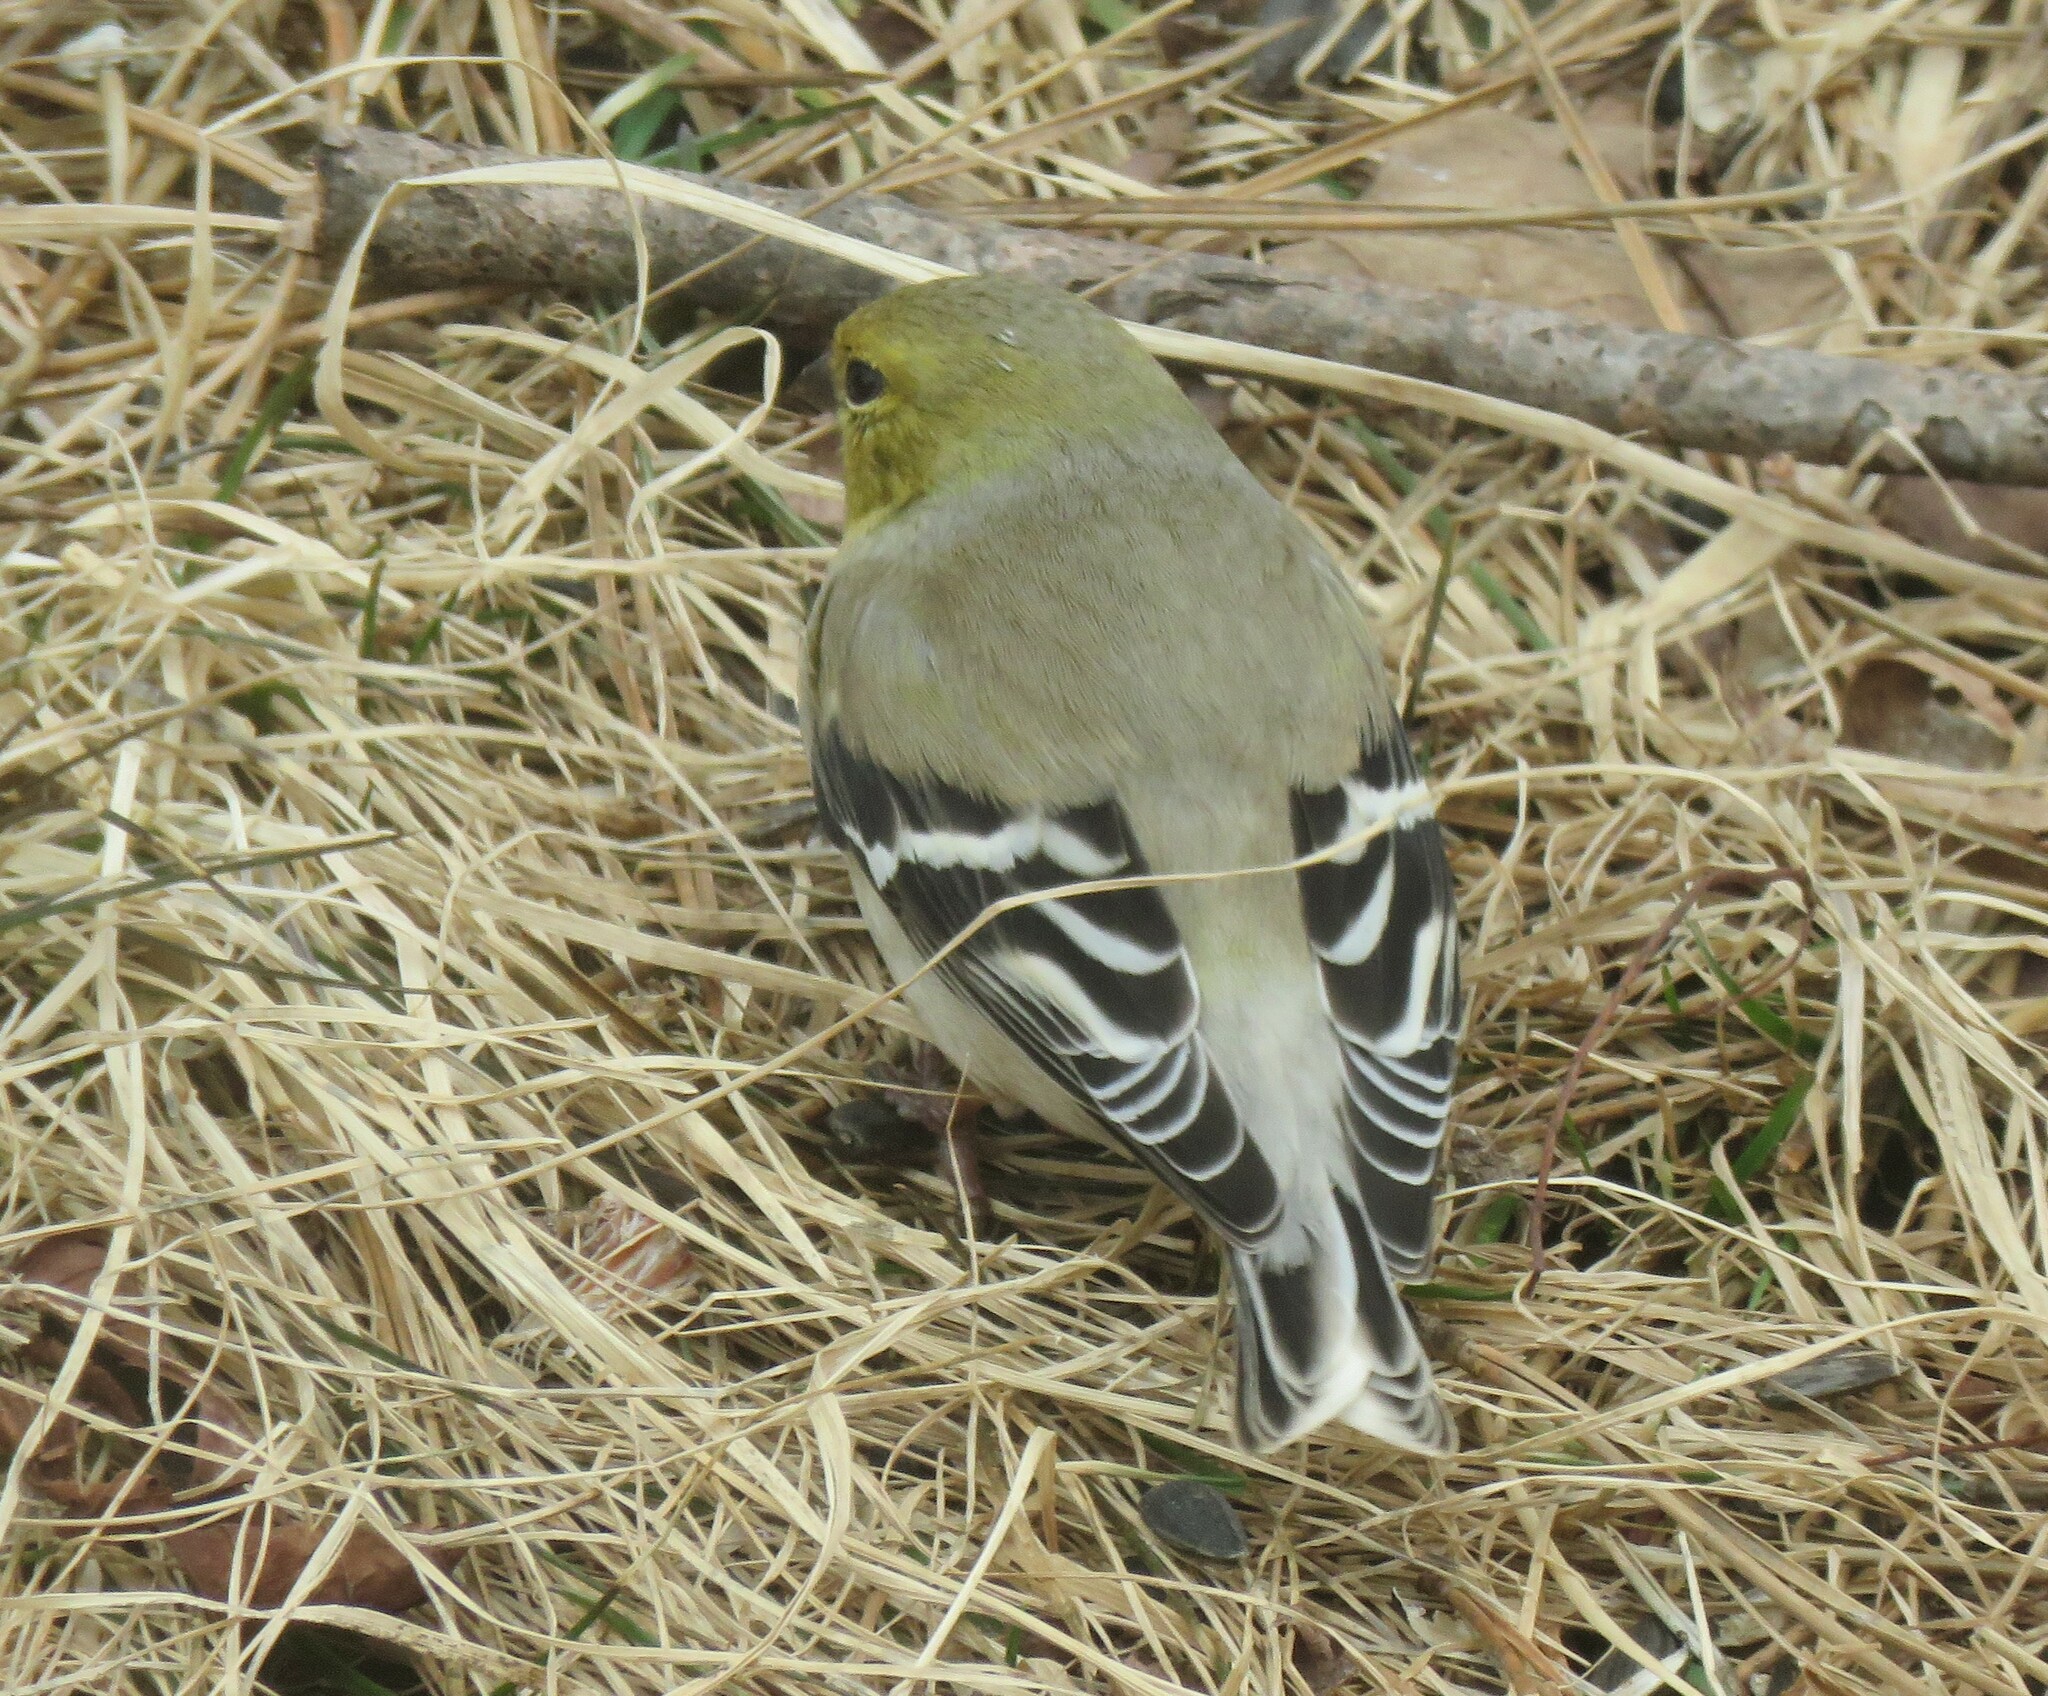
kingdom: Animalia
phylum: Chordata
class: Aves
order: Passeriformes
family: Fringillidae
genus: Spinus
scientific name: Spinus tristis
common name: American goldfinch
